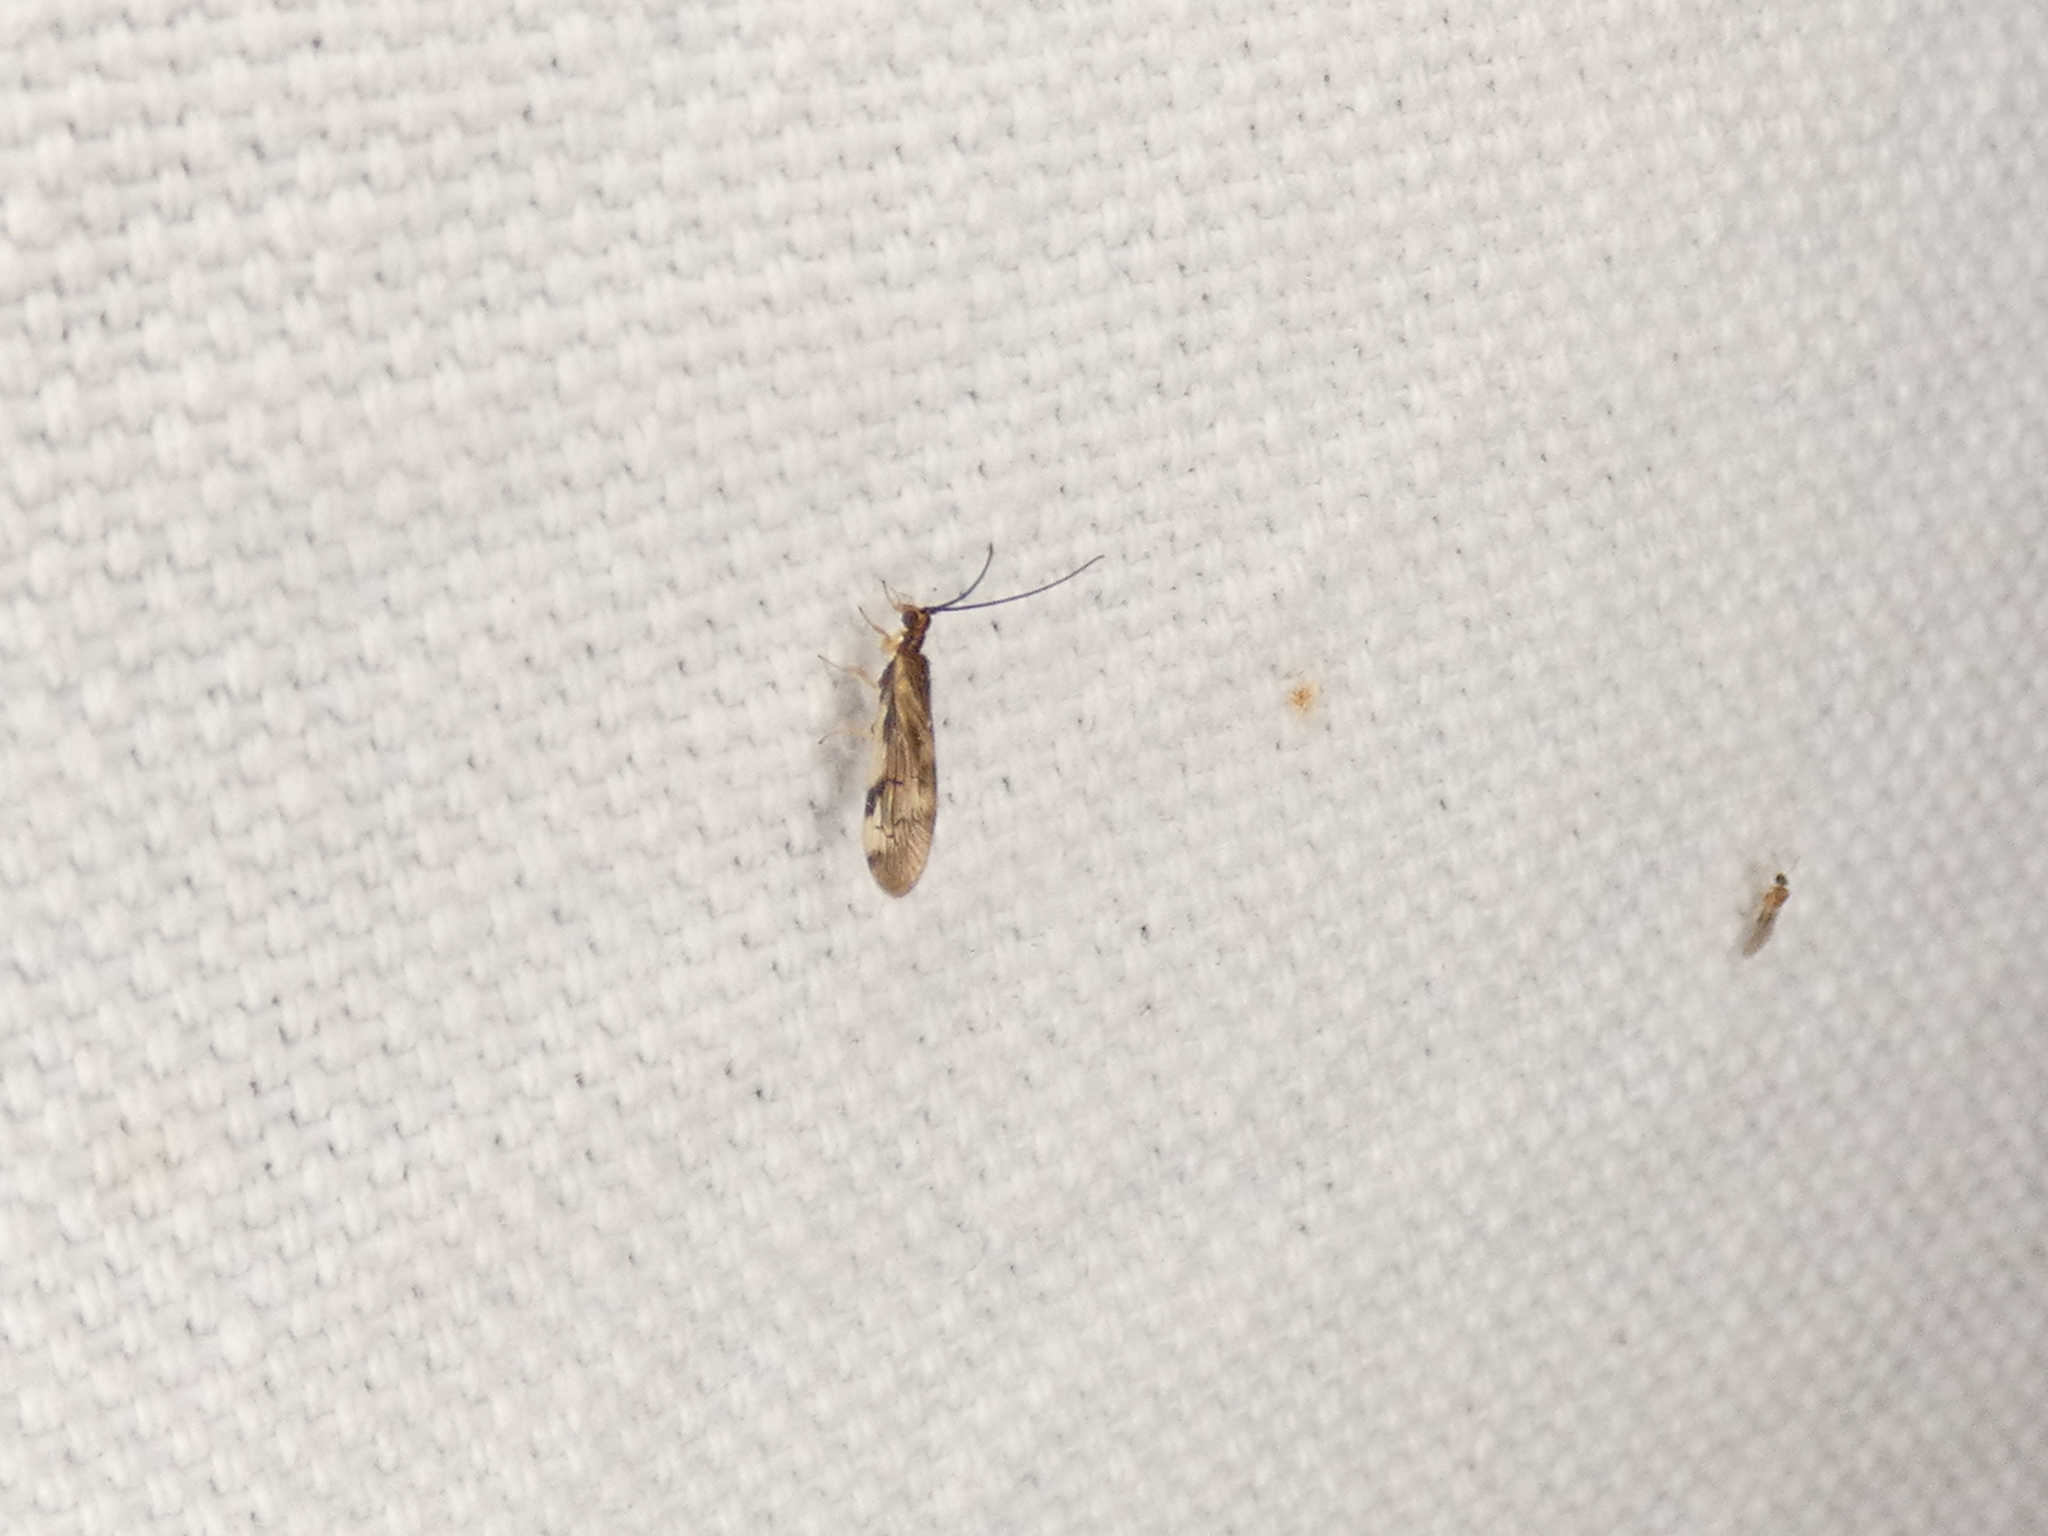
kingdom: Animalia
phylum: Arthropoda
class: Insecta
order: Neuroptera
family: Sisyridae
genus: Climacia
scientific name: Climacia areolaris
